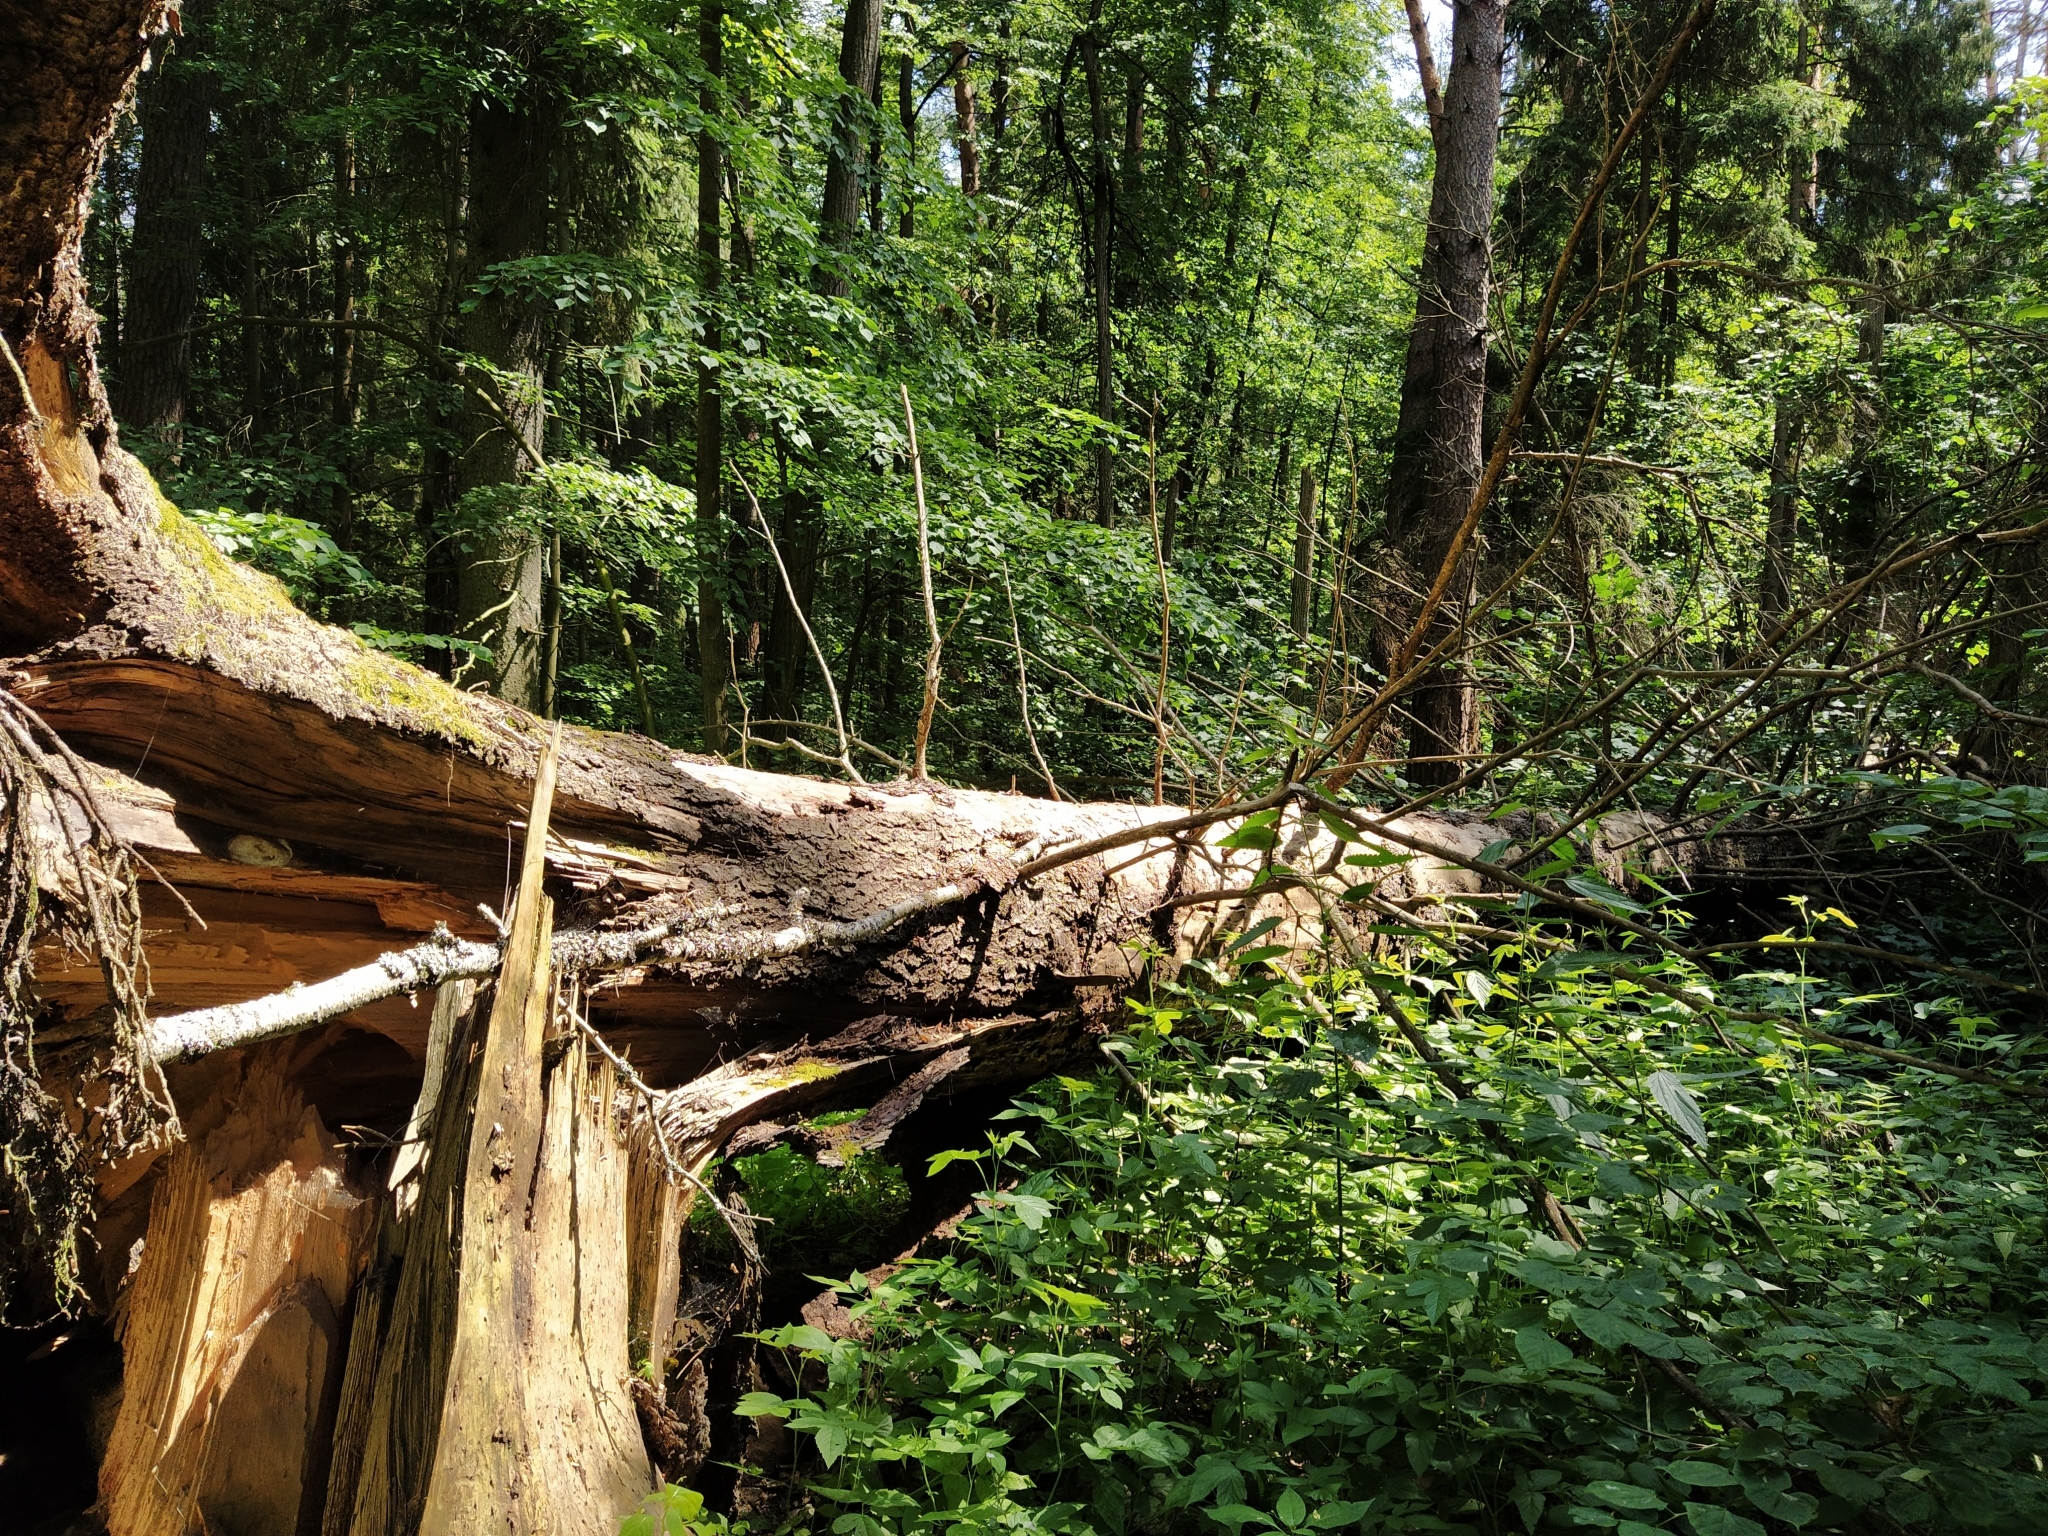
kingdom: Plantae
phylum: Tracheophyta
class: Pinopsida
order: Pinales
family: Pinaceae
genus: Picea
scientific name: Picea abies
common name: Norway spruce
